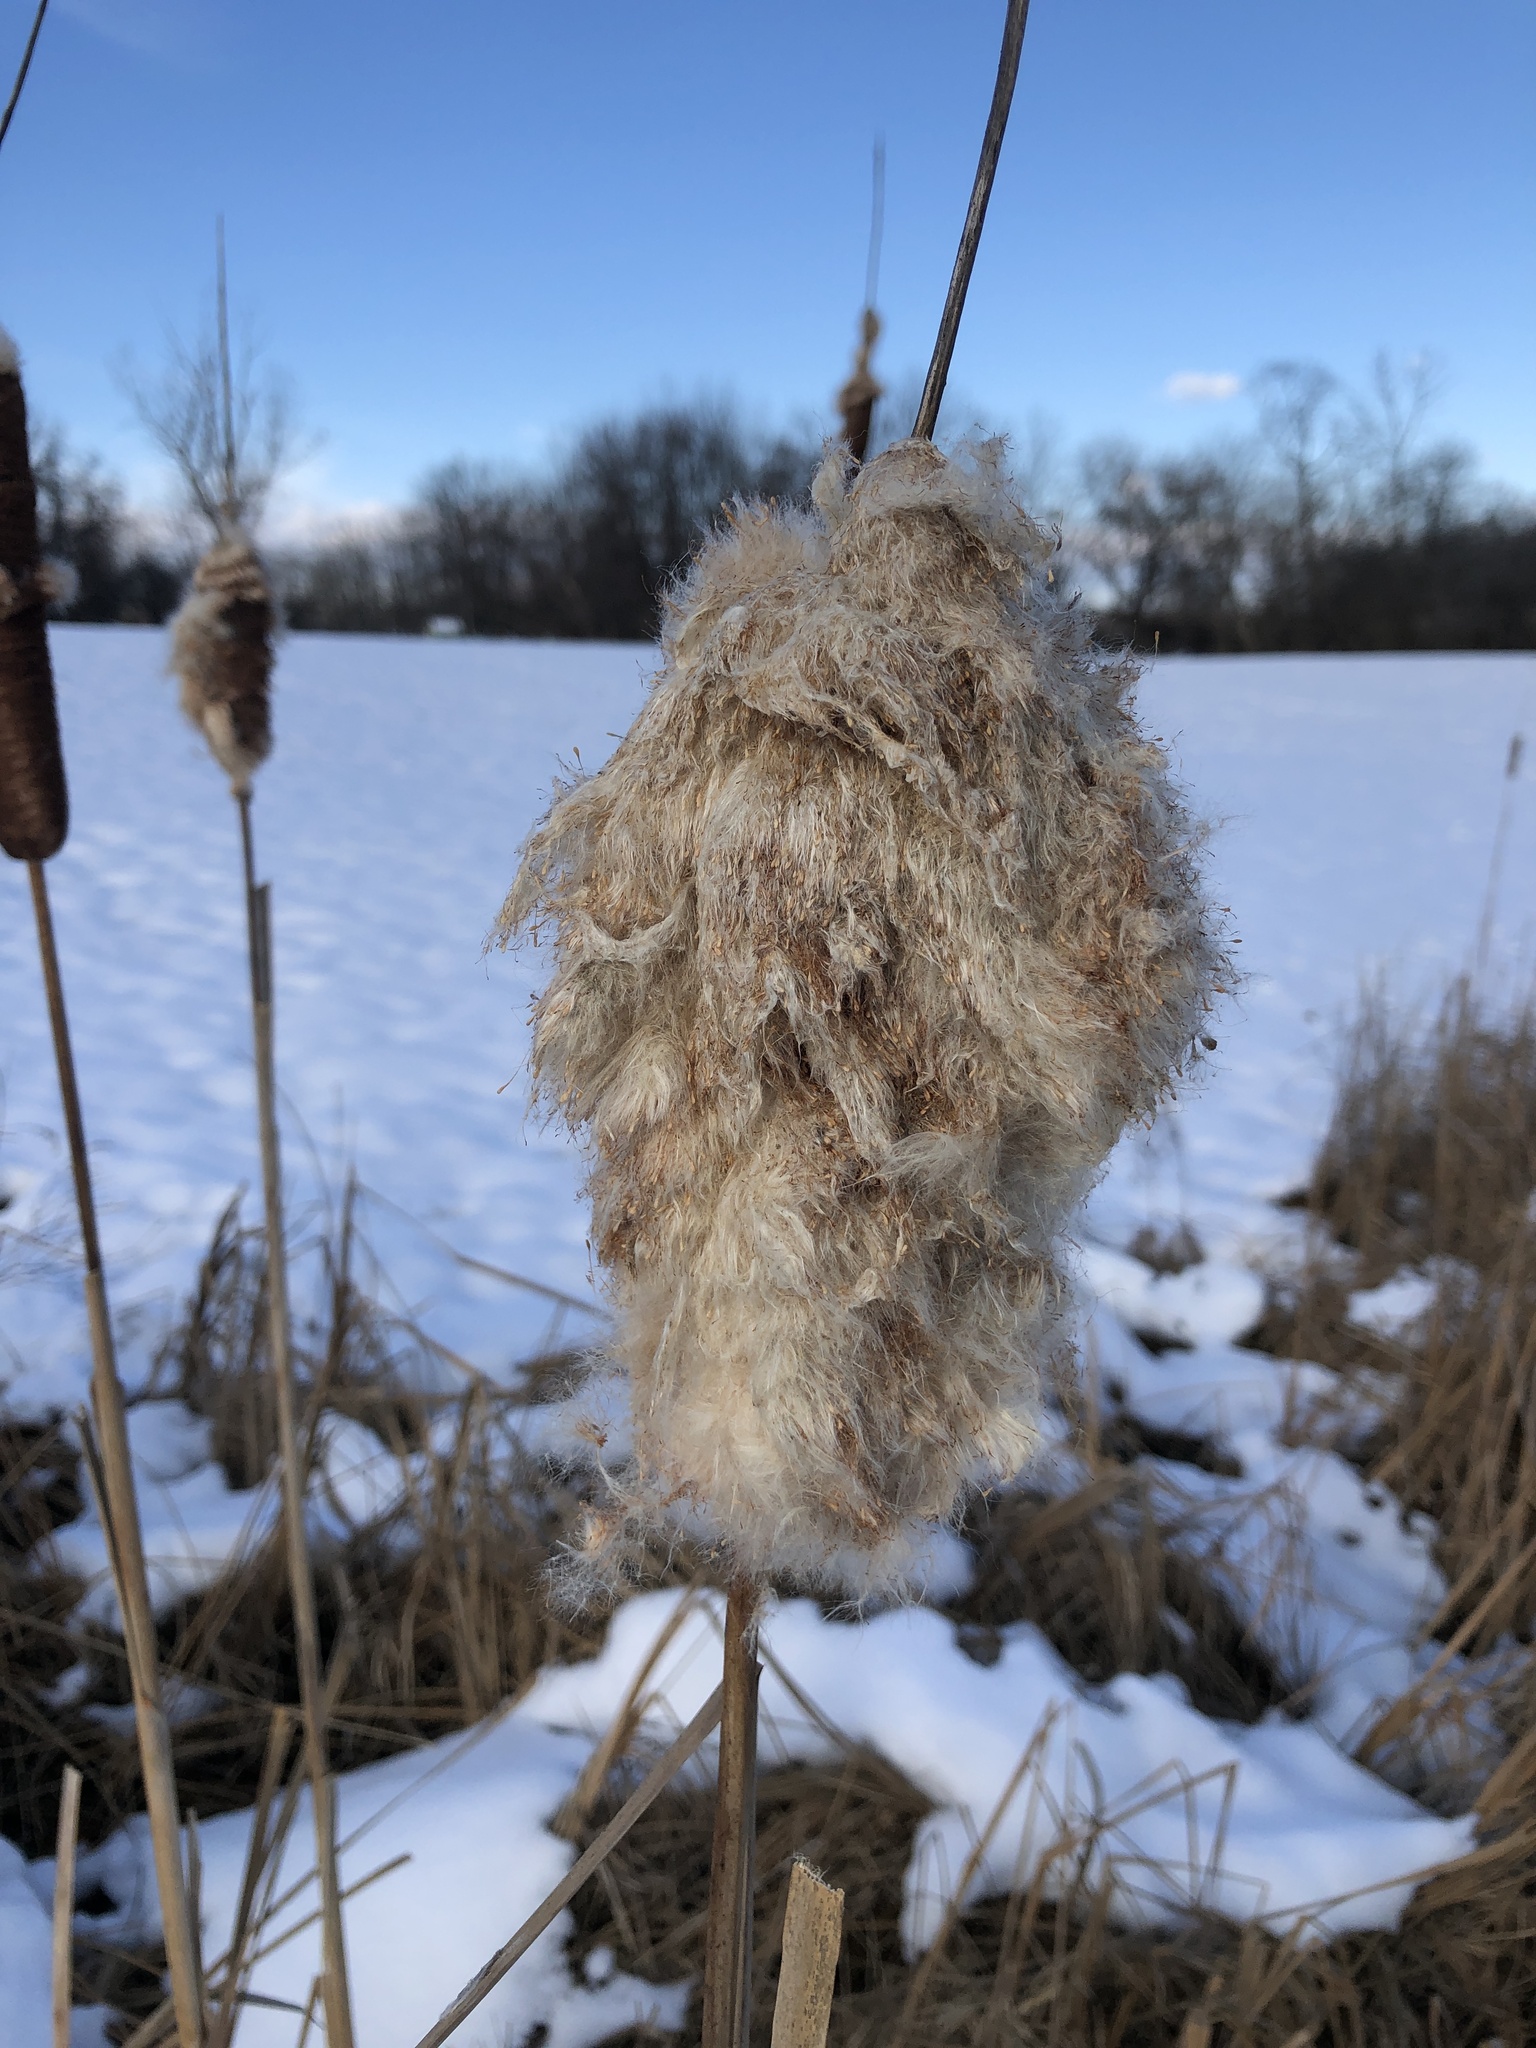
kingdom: Plantae
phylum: Tracheophyta
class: Liliopsida
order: Poales
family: Typhaceae
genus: Typha
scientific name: Typha
